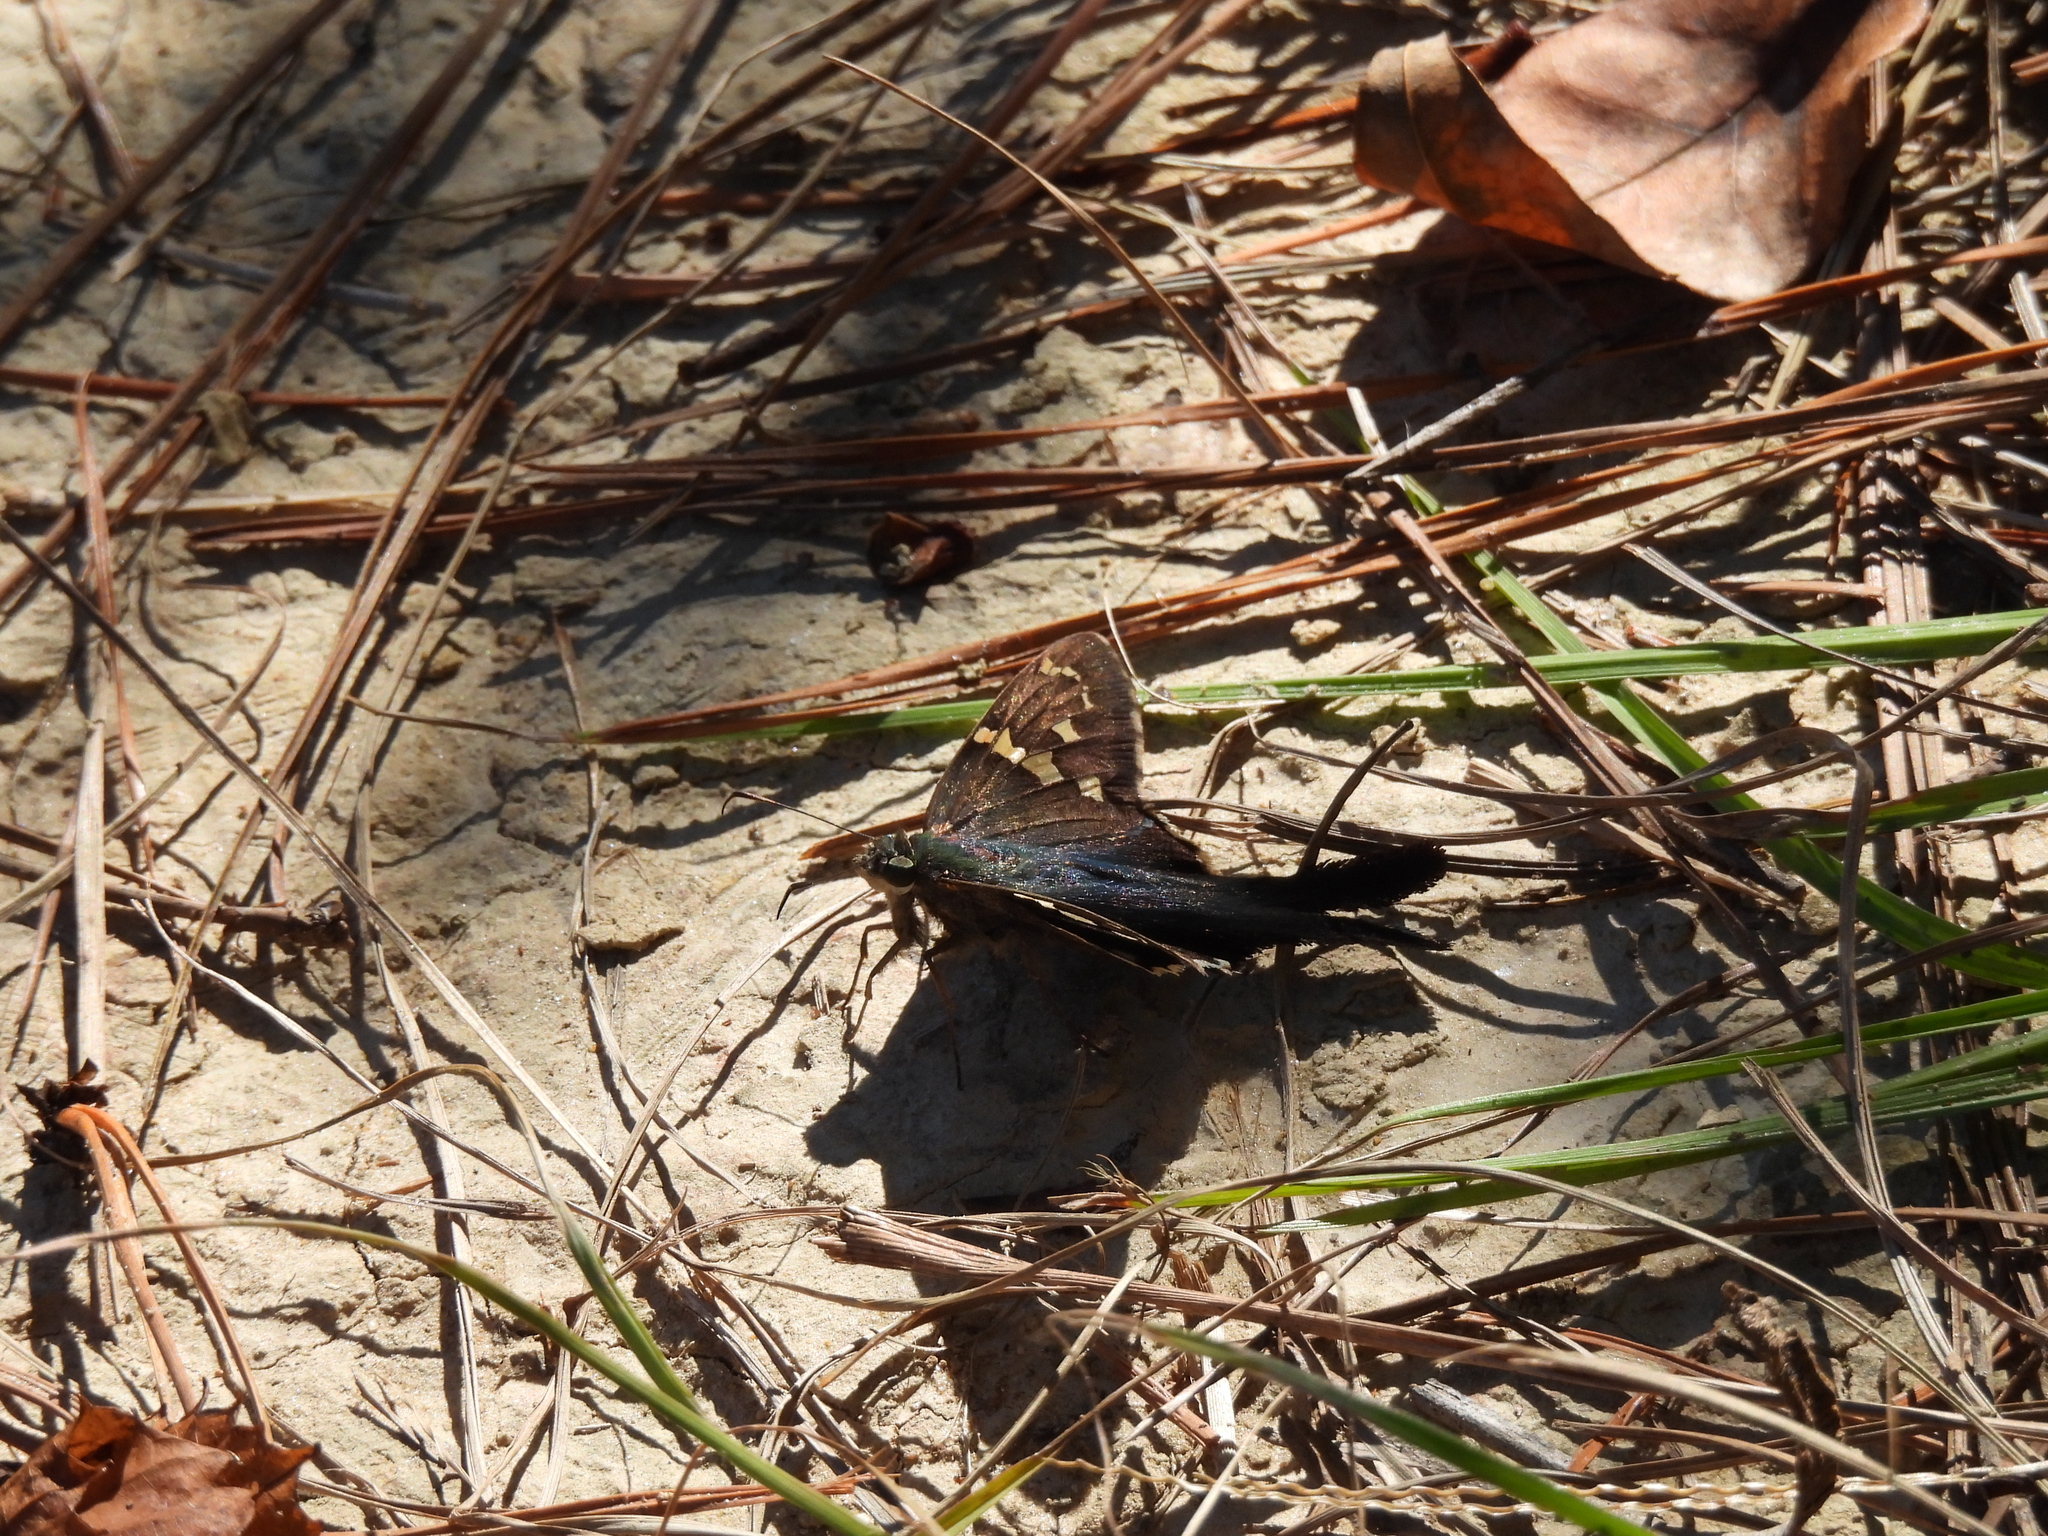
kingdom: Animalia
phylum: Arthropoda
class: Insecta
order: Lepidoptera
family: Hesperiidae
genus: Urbanus
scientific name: Urbanus proteus
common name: Long-tailed skipper
